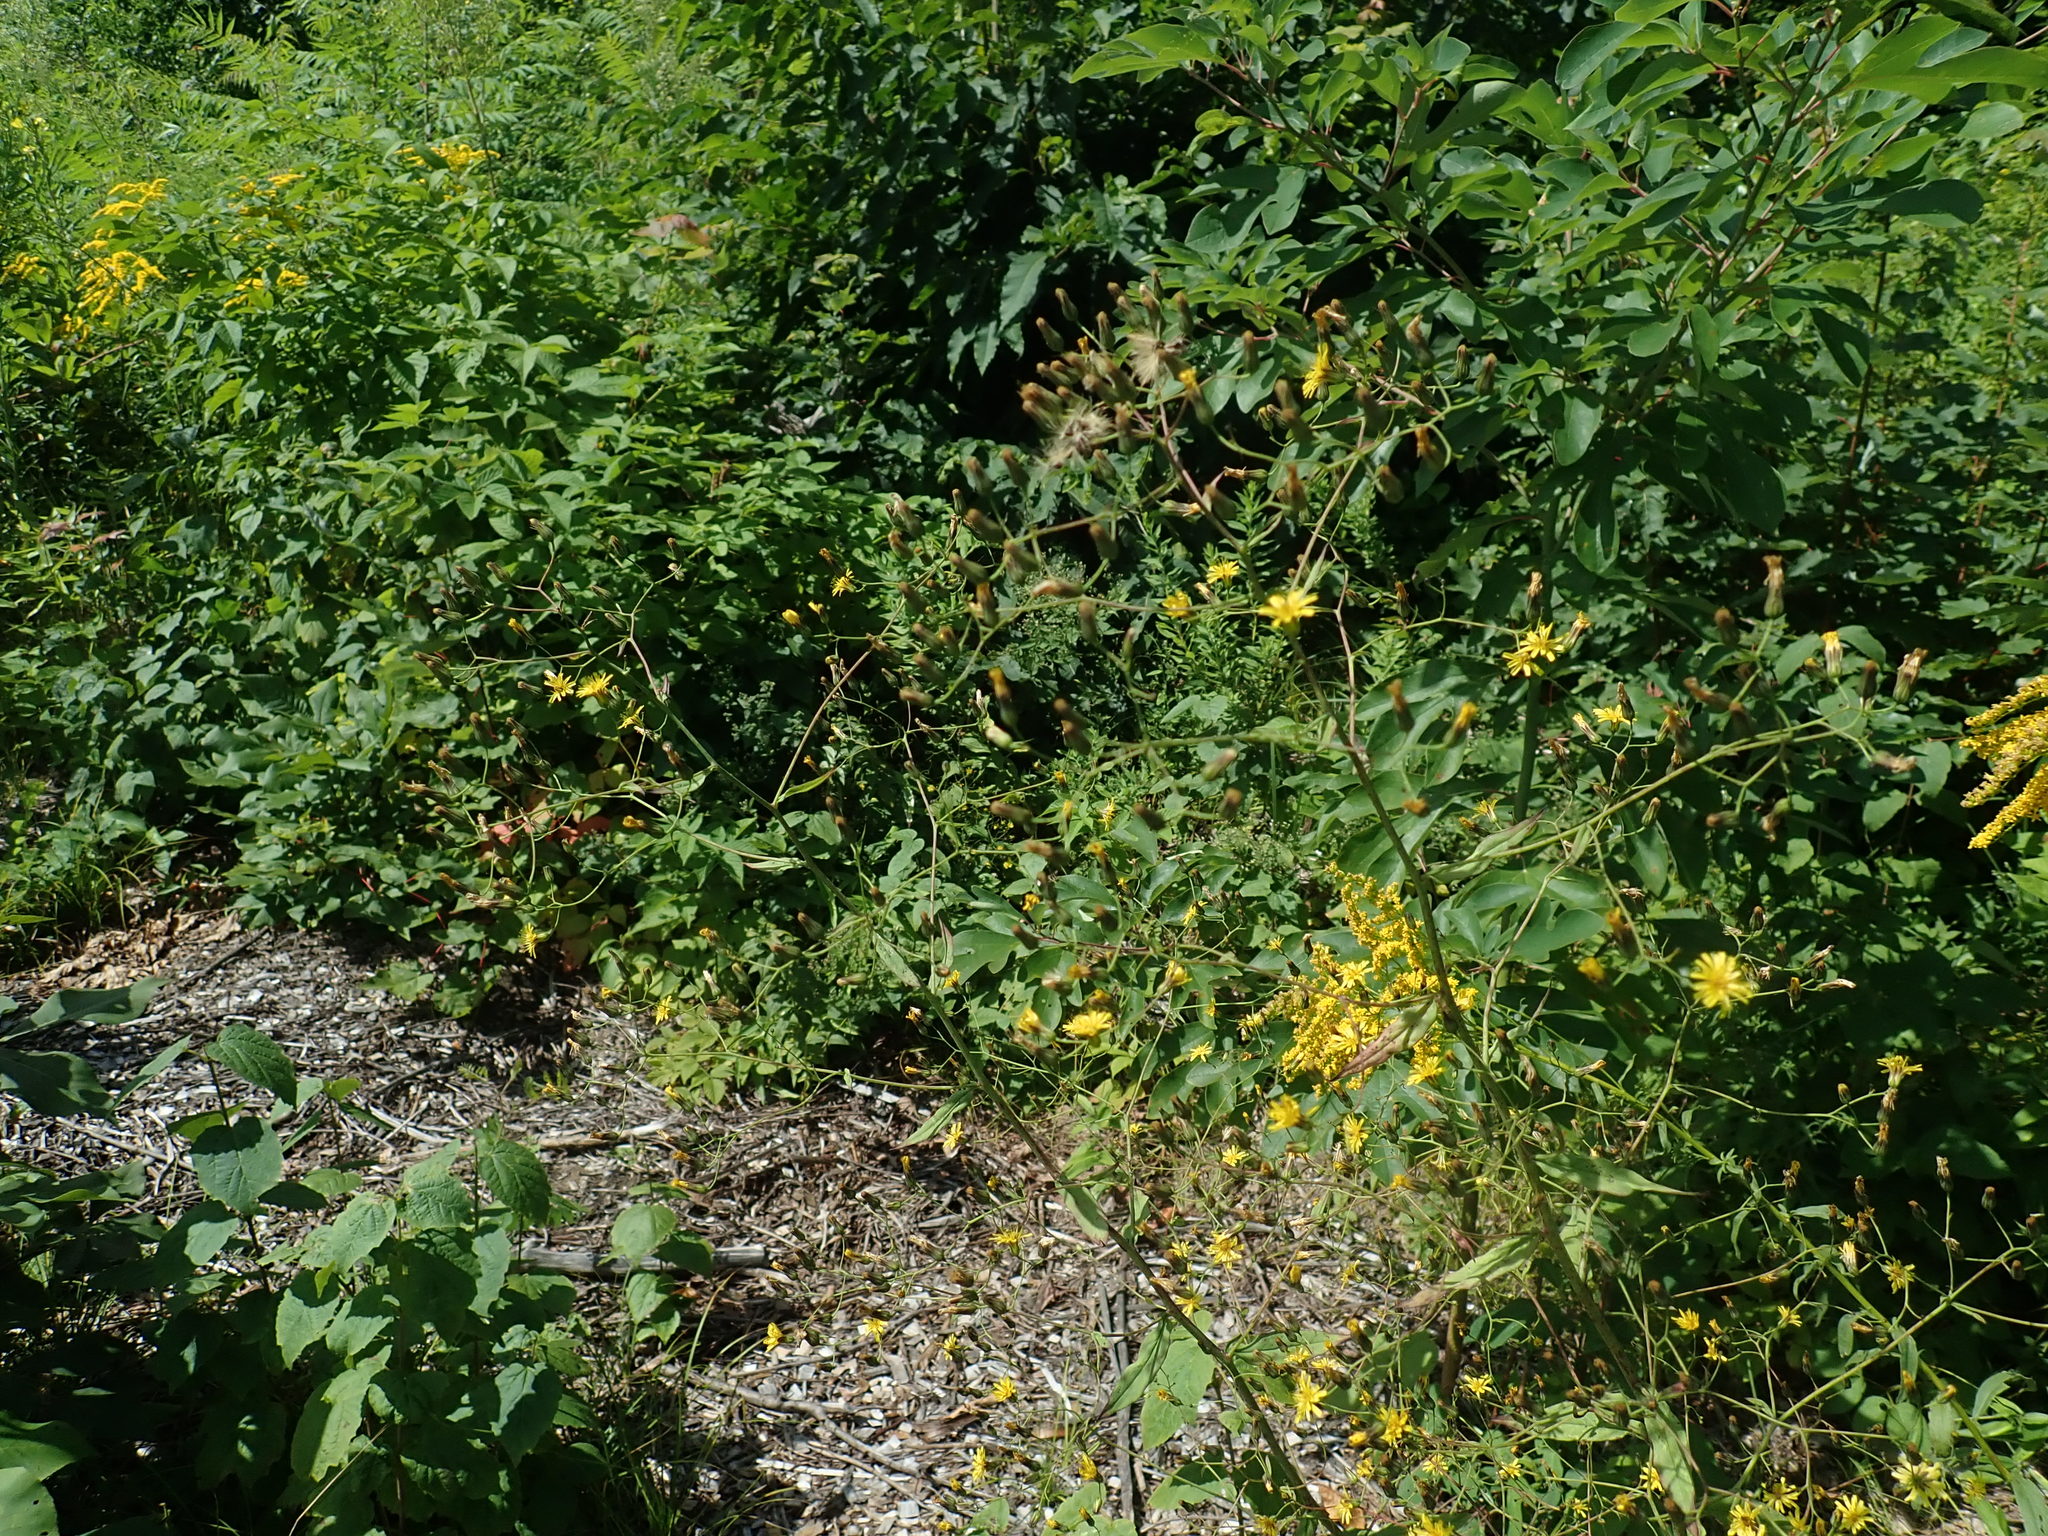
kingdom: Plantae
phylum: Tracheophyta
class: Magnoliopsida
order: Asterales
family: Asteraceae
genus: Hieracium
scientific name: Hieracium paniculatum
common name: Allegheny hawkweed
